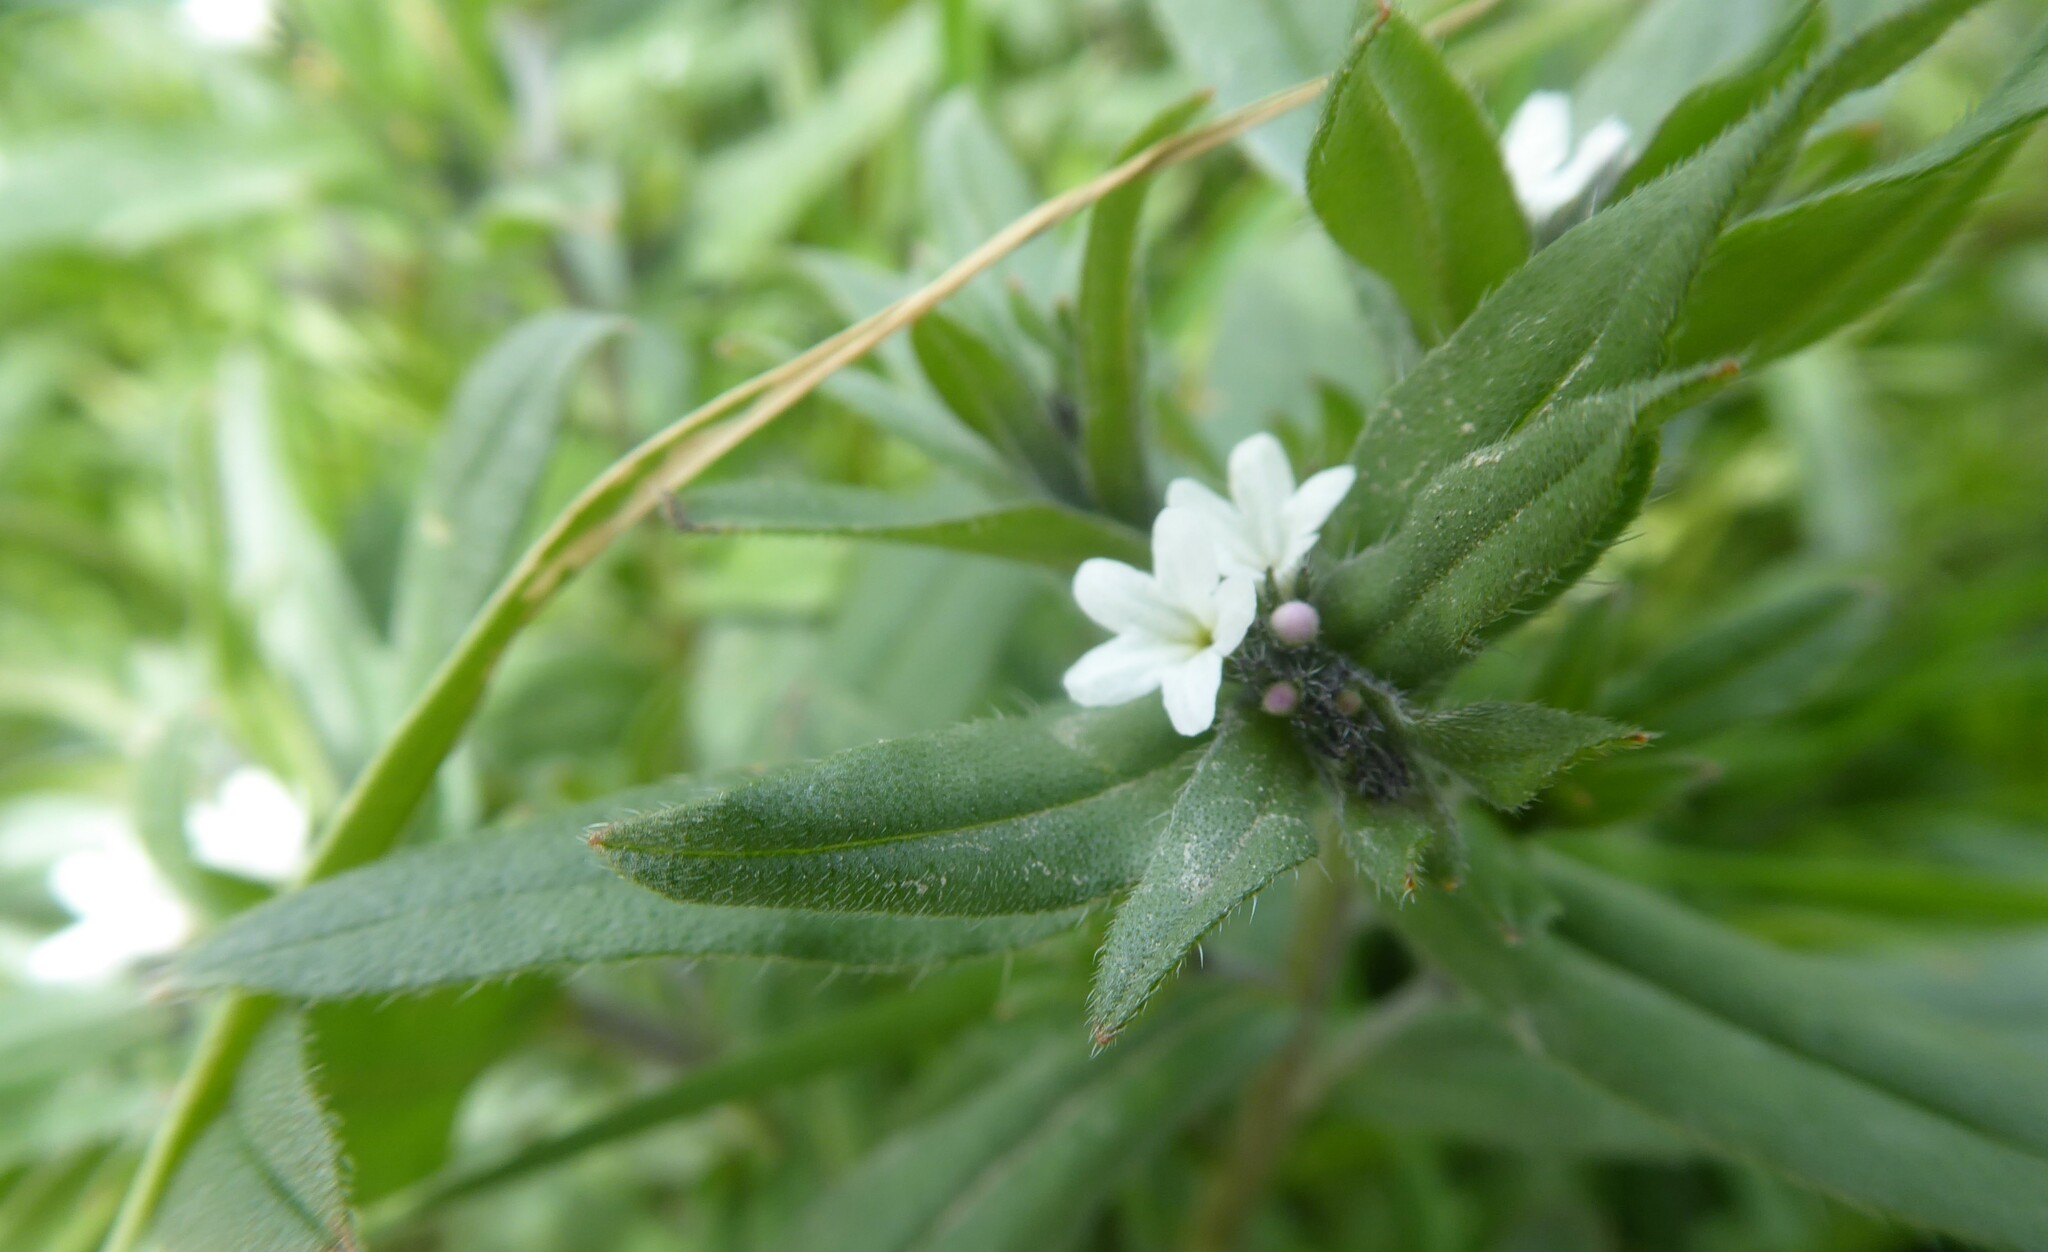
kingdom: Plantae
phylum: Tracheophyta
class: Magnoliopsida
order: Boraginales
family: Boraginaceae
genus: Buglossoides
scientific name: Buglossoides arvensis
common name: Corn gromwell
